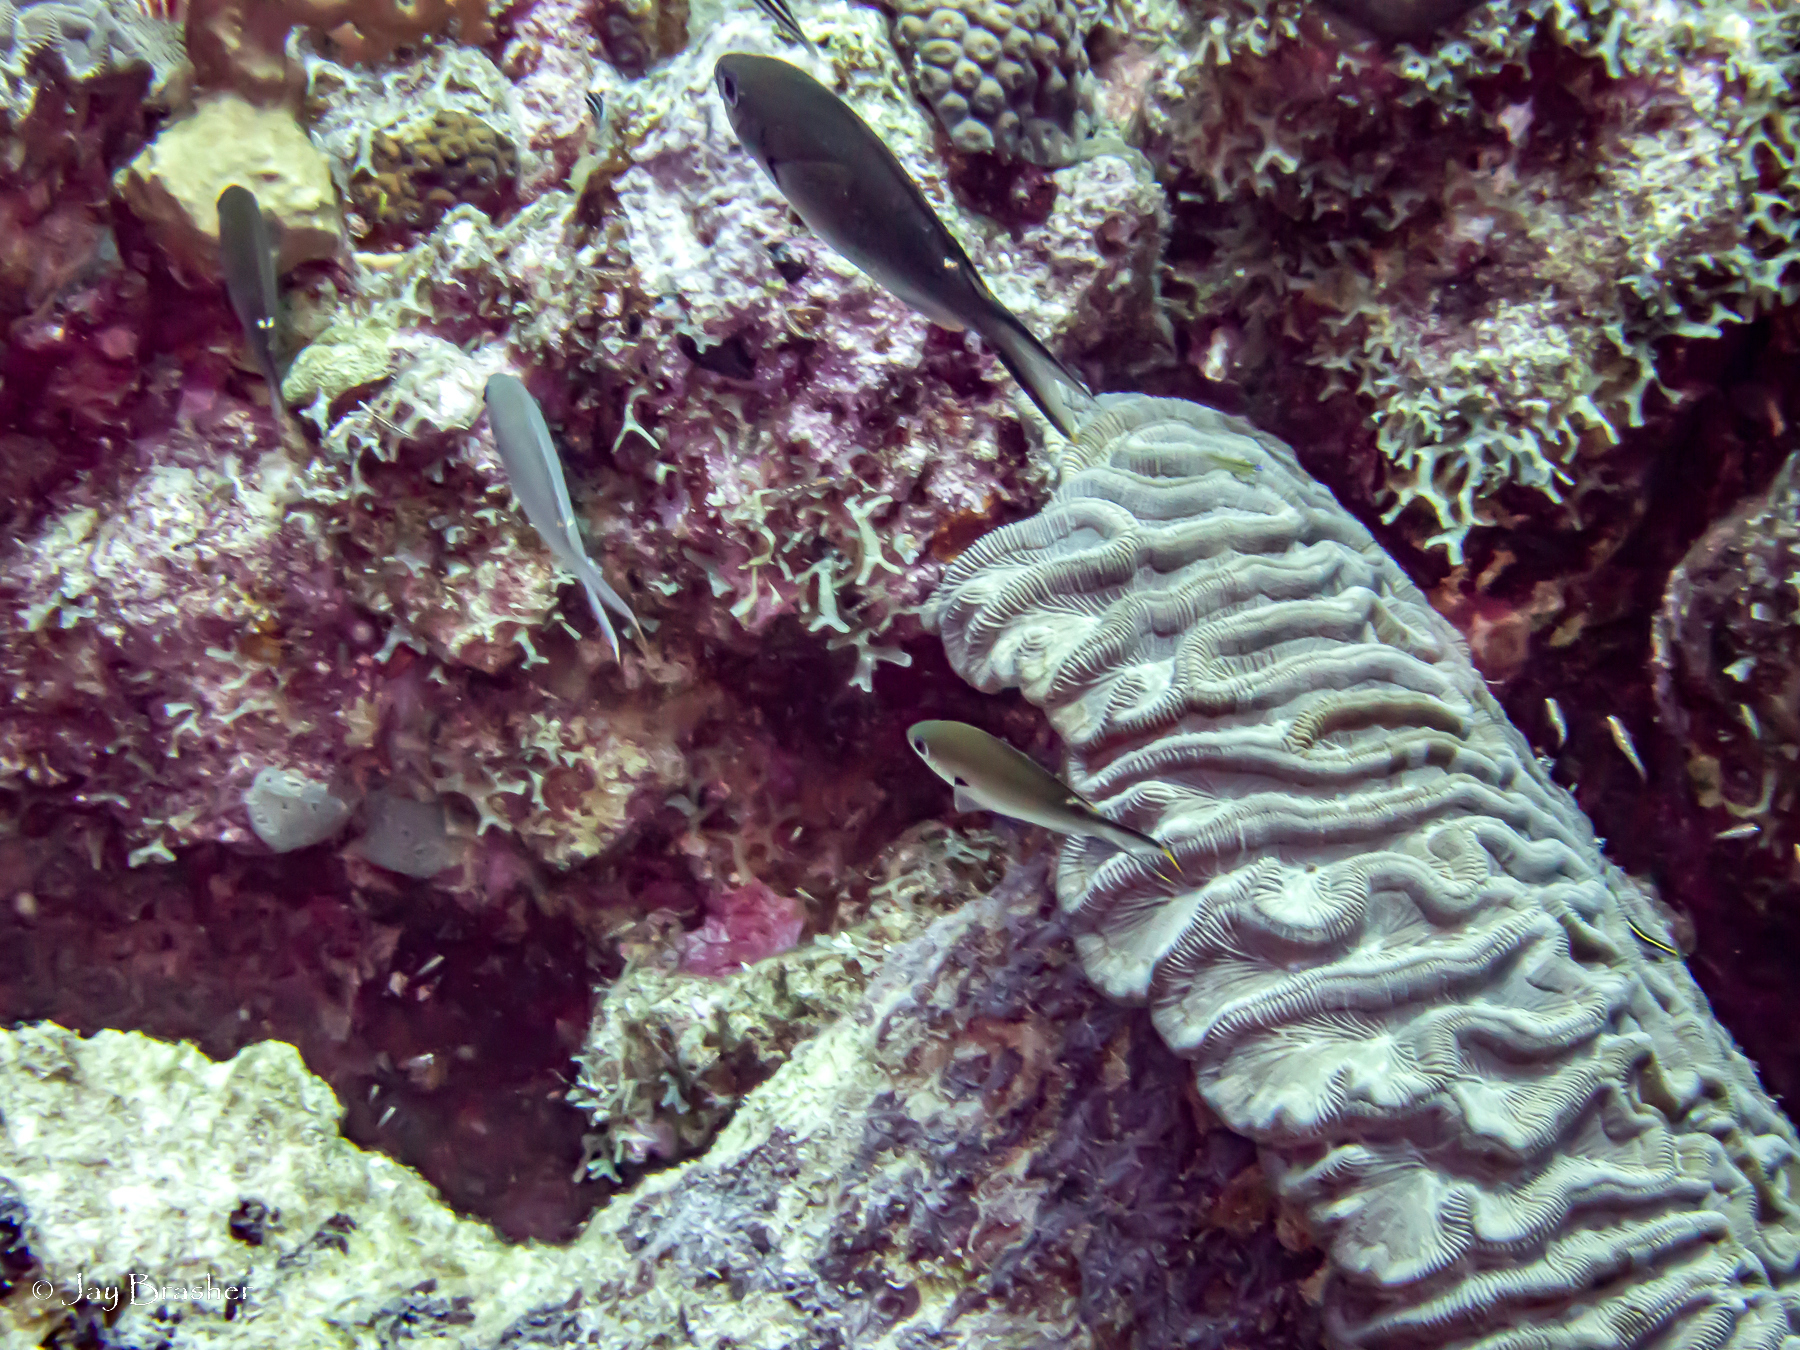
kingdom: Animalia
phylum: Cnidaria
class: Anthozoa
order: Scleractinia
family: Faviidae
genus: Colpophyllia
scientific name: Colpophyllia natans
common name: Boulder brain coral
